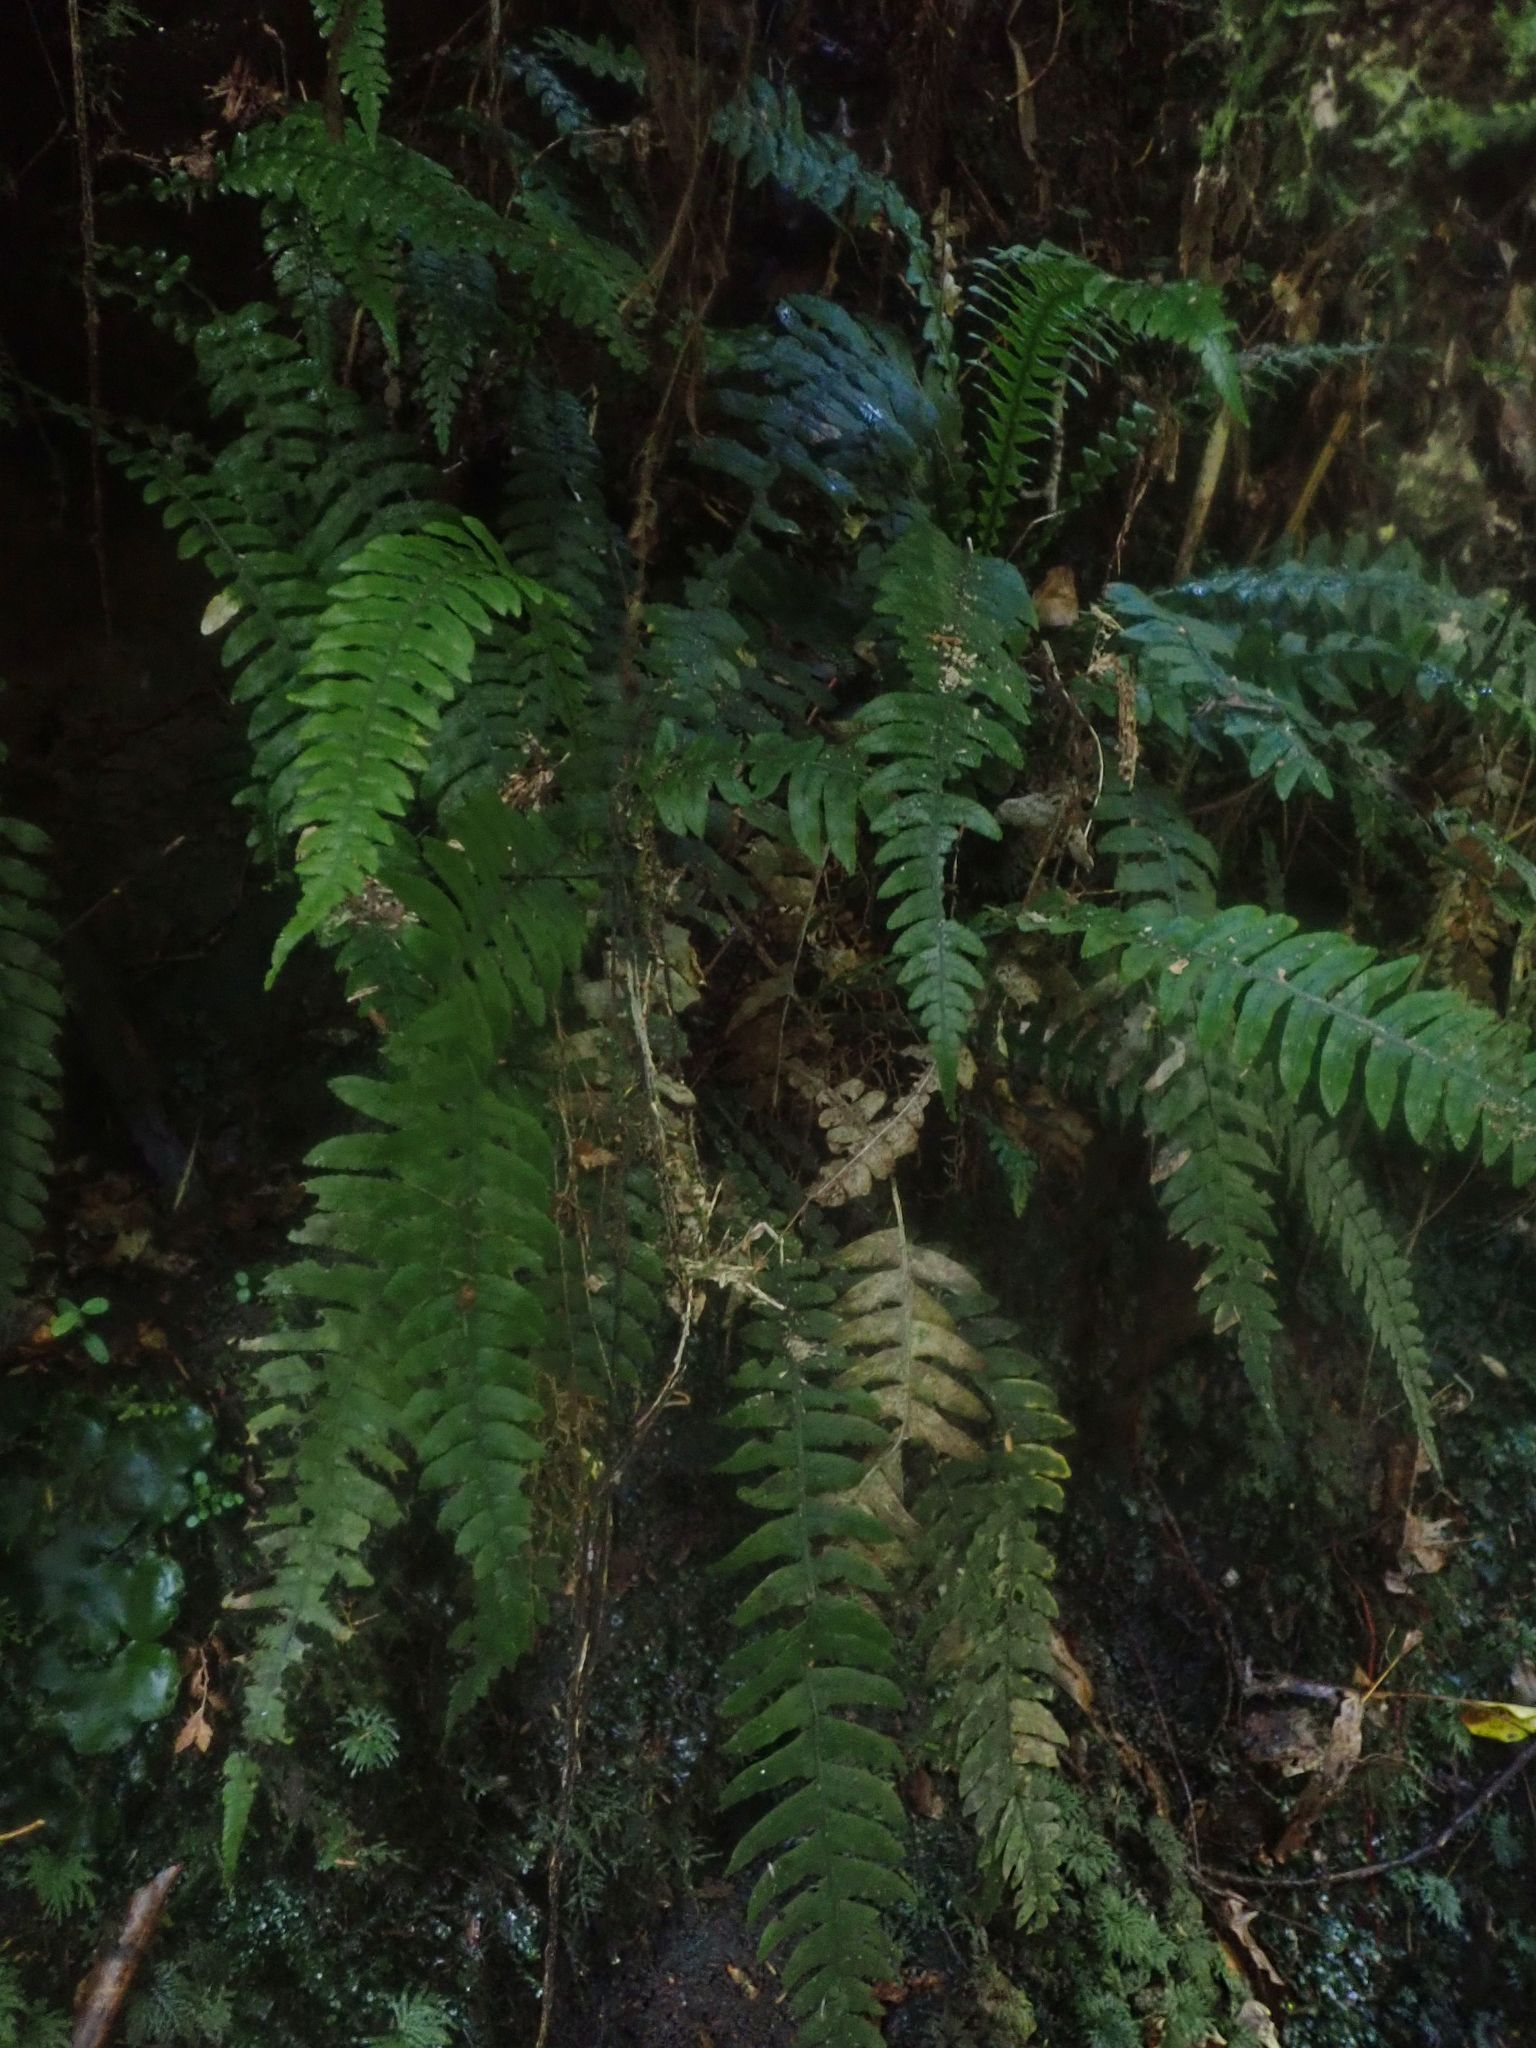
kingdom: Plantae
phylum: Tracheophyta
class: Polypodiopsida
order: Polypodiales
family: Blechnaceae
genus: Austroblechnum
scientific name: Austroblechnum lanceolatum
